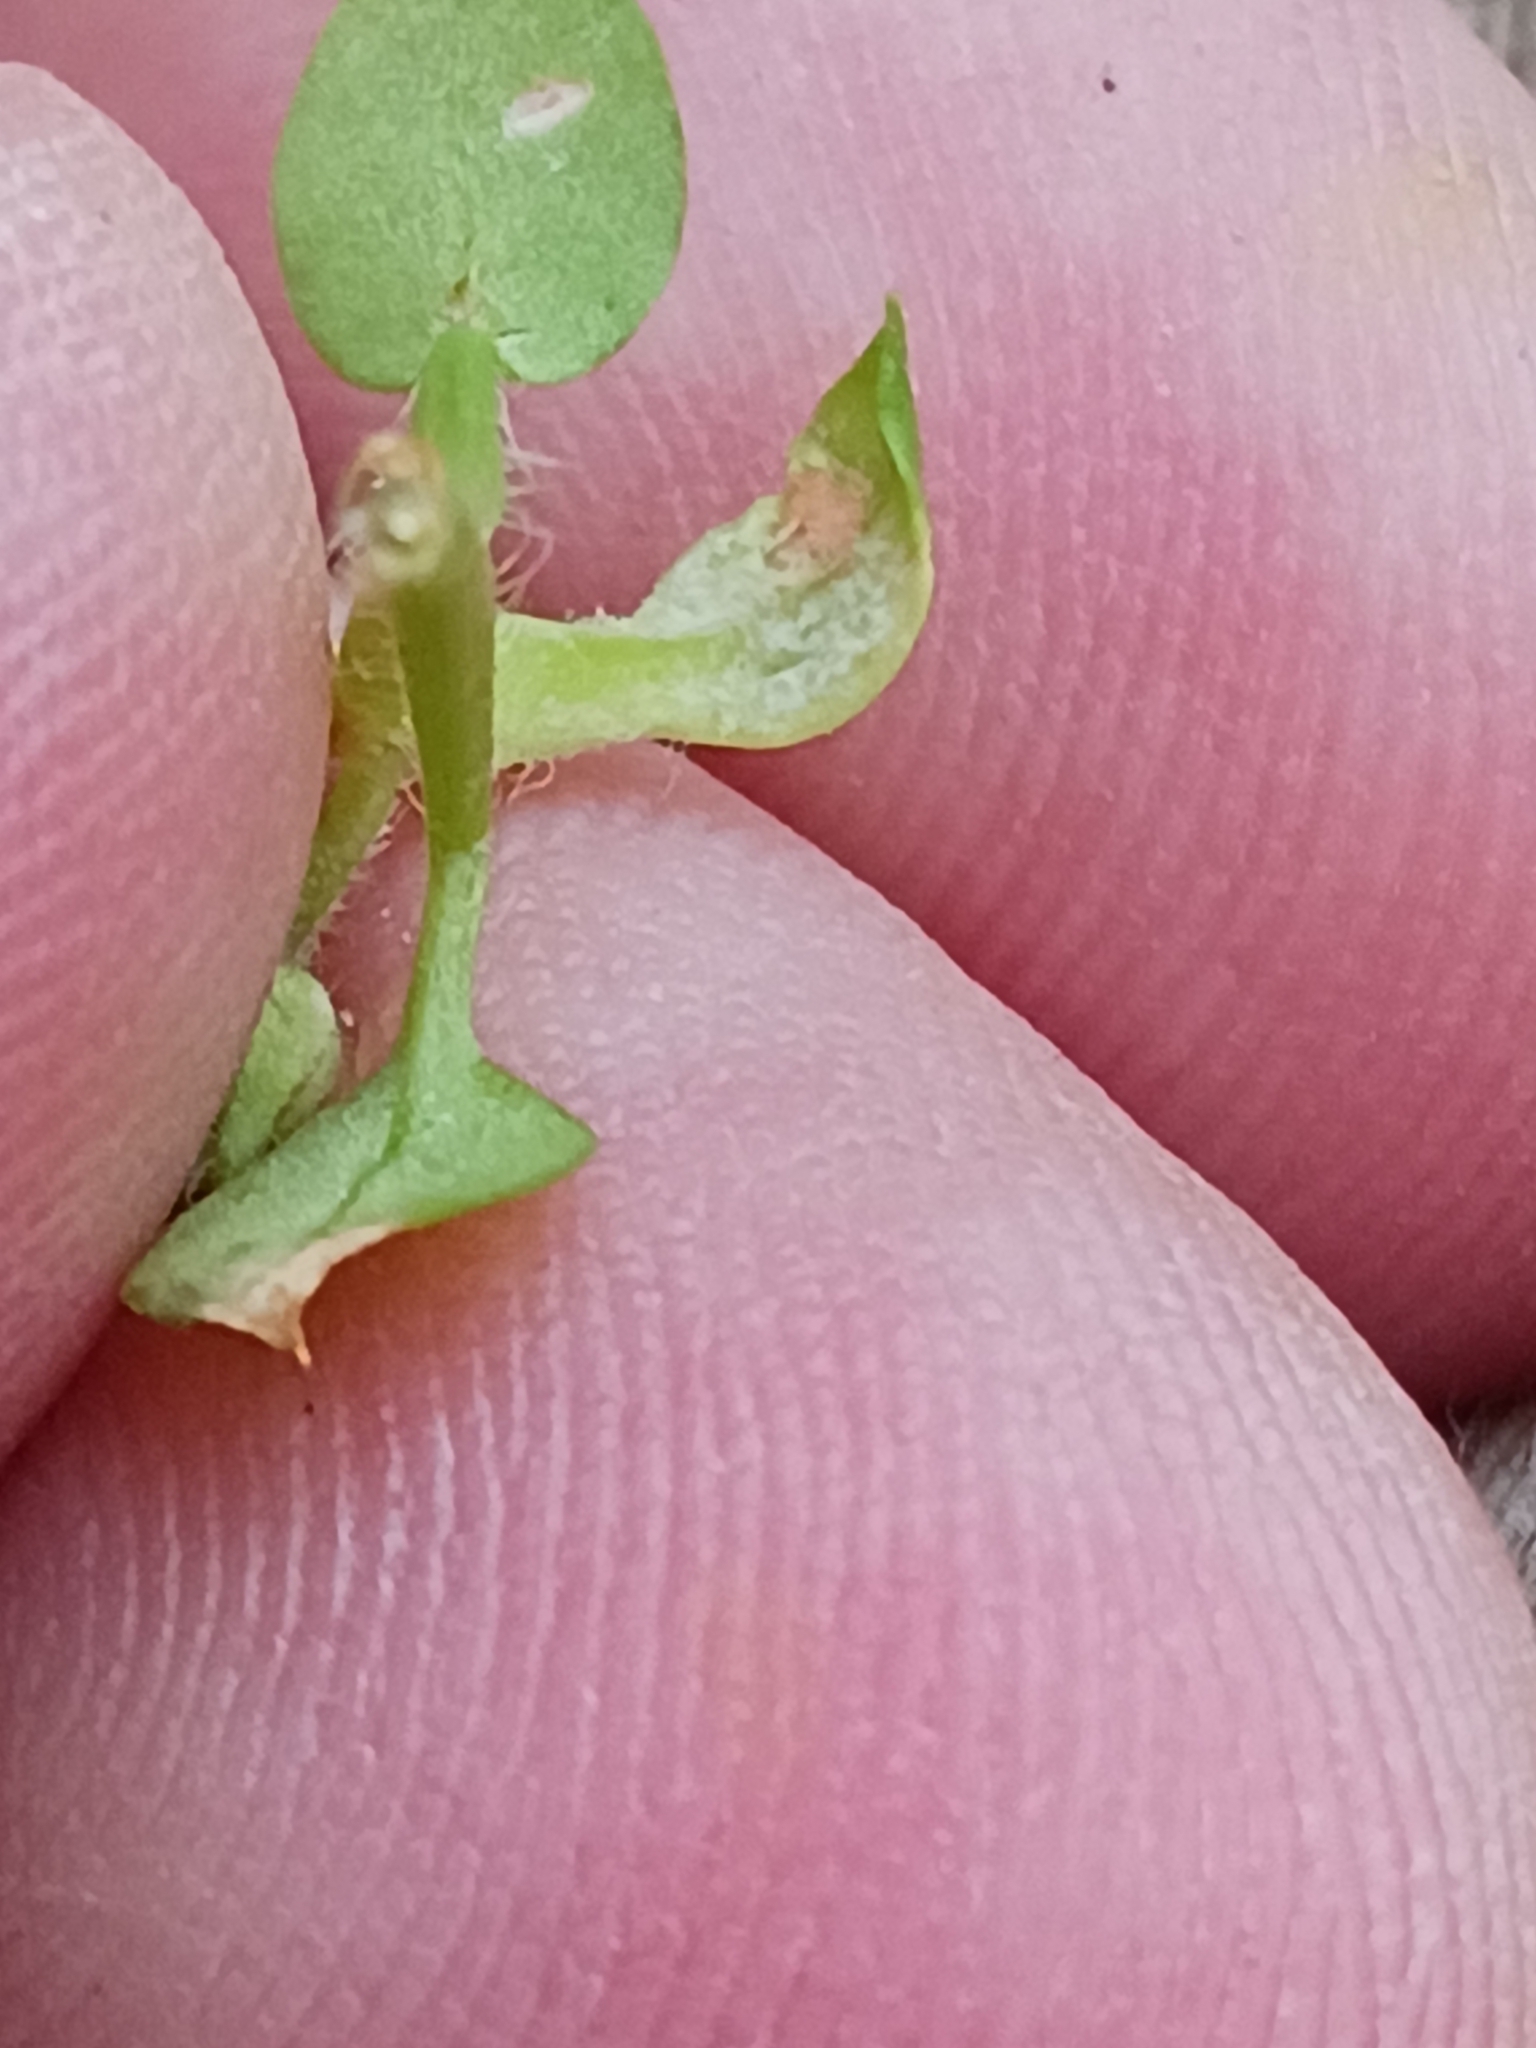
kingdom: Chromista
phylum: Oomycota
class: Peronosporea
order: Peronosporales
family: Peronosporaceae
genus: Peronospora
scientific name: Peronospora alsinearum
